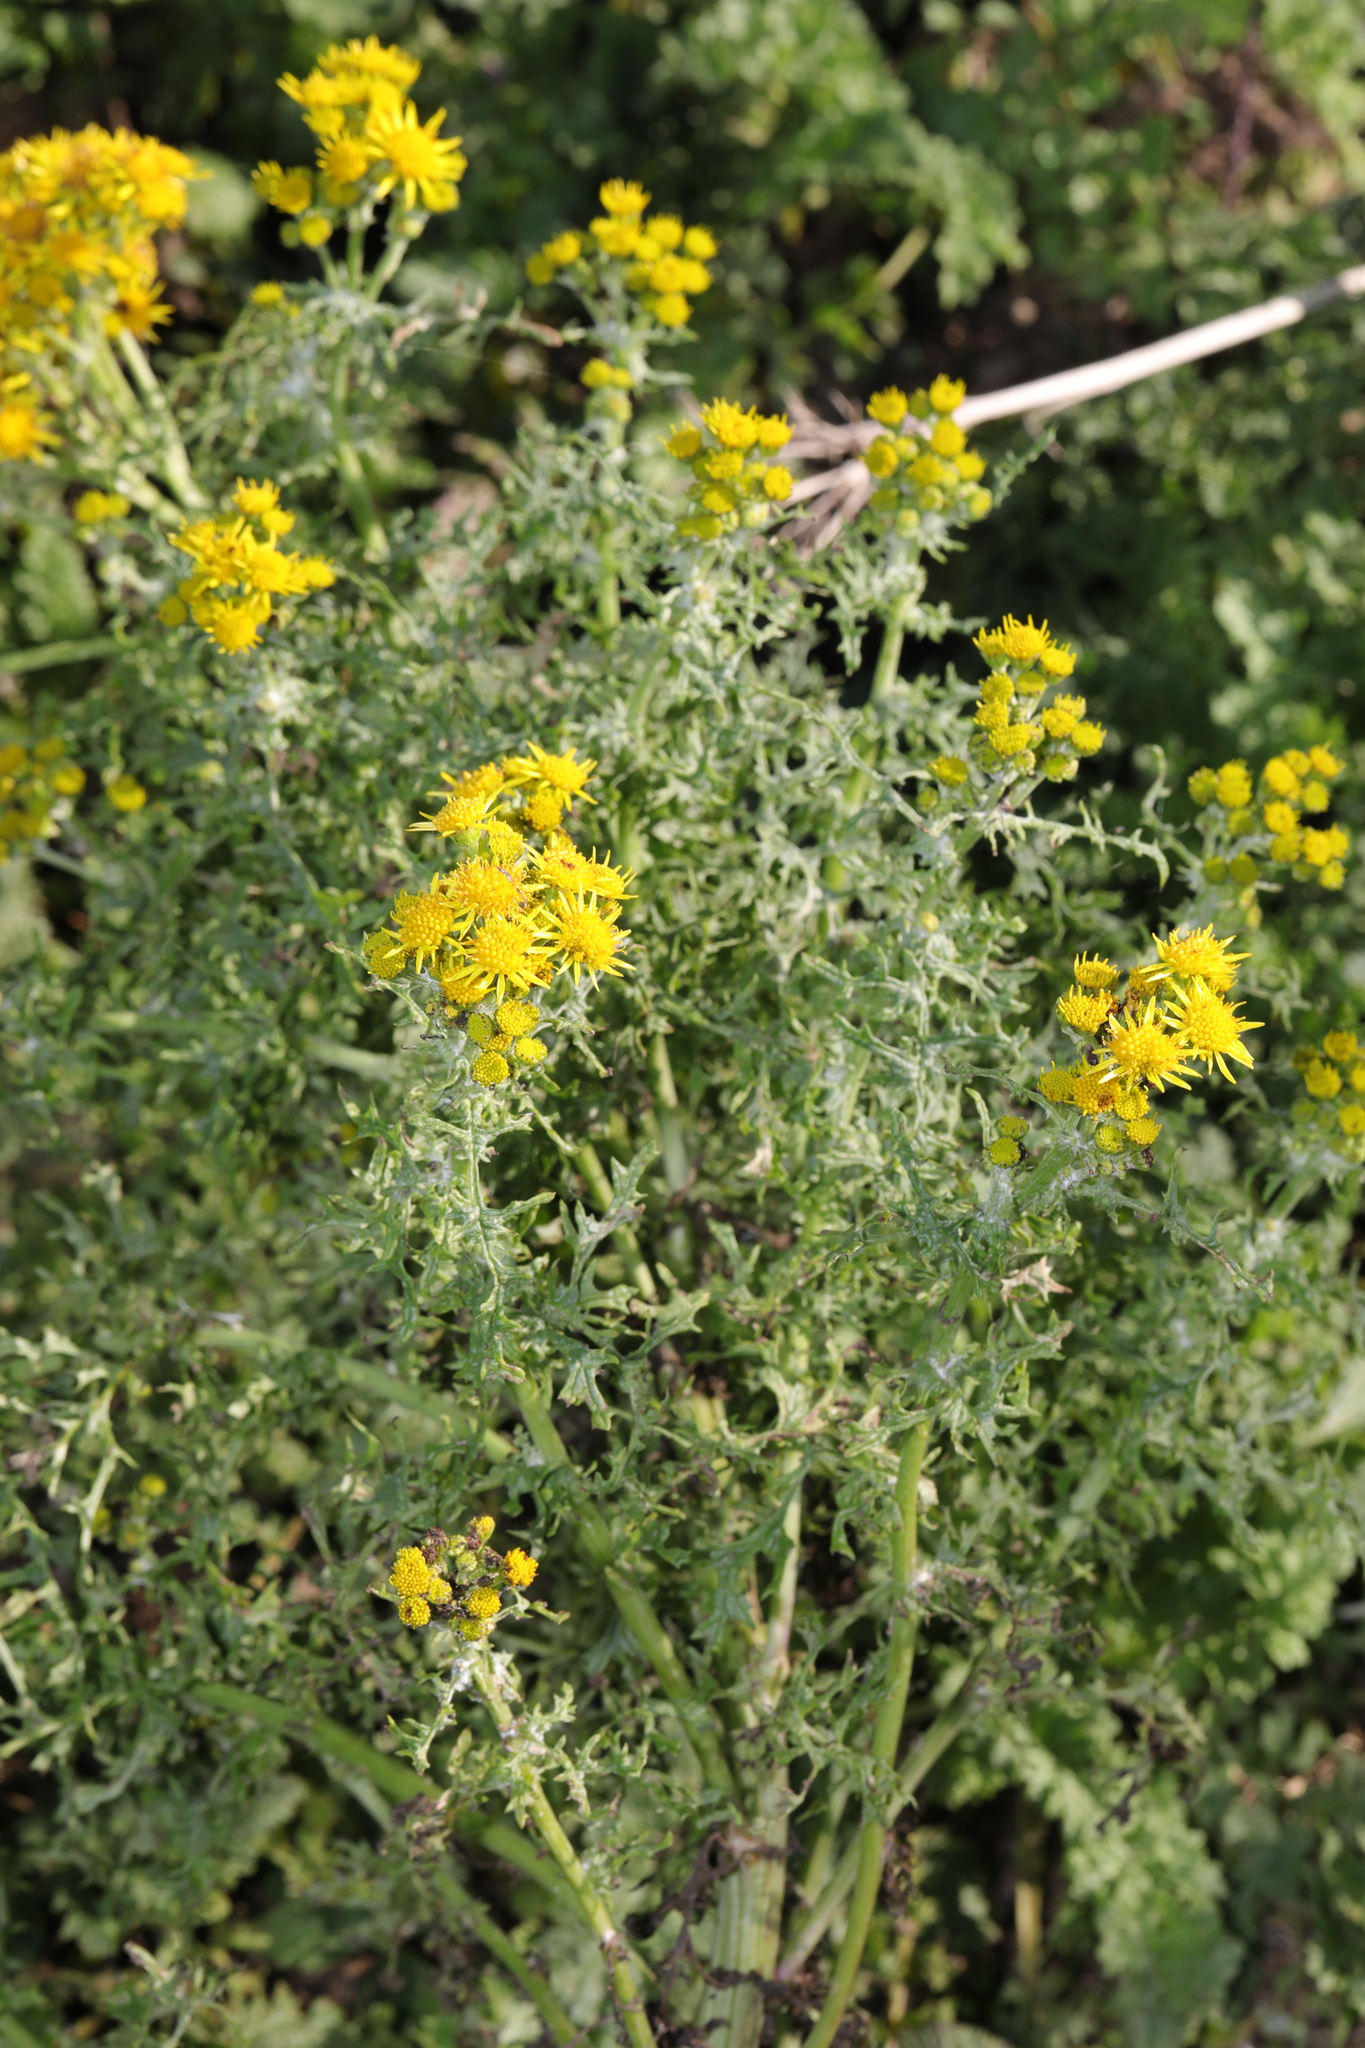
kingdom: Plantae
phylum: Tracheophyta
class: Magnoliopsida
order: Asterales
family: Asteraceae
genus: Jacobaea
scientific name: Jacobaea vulgaris
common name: Stinking willie
